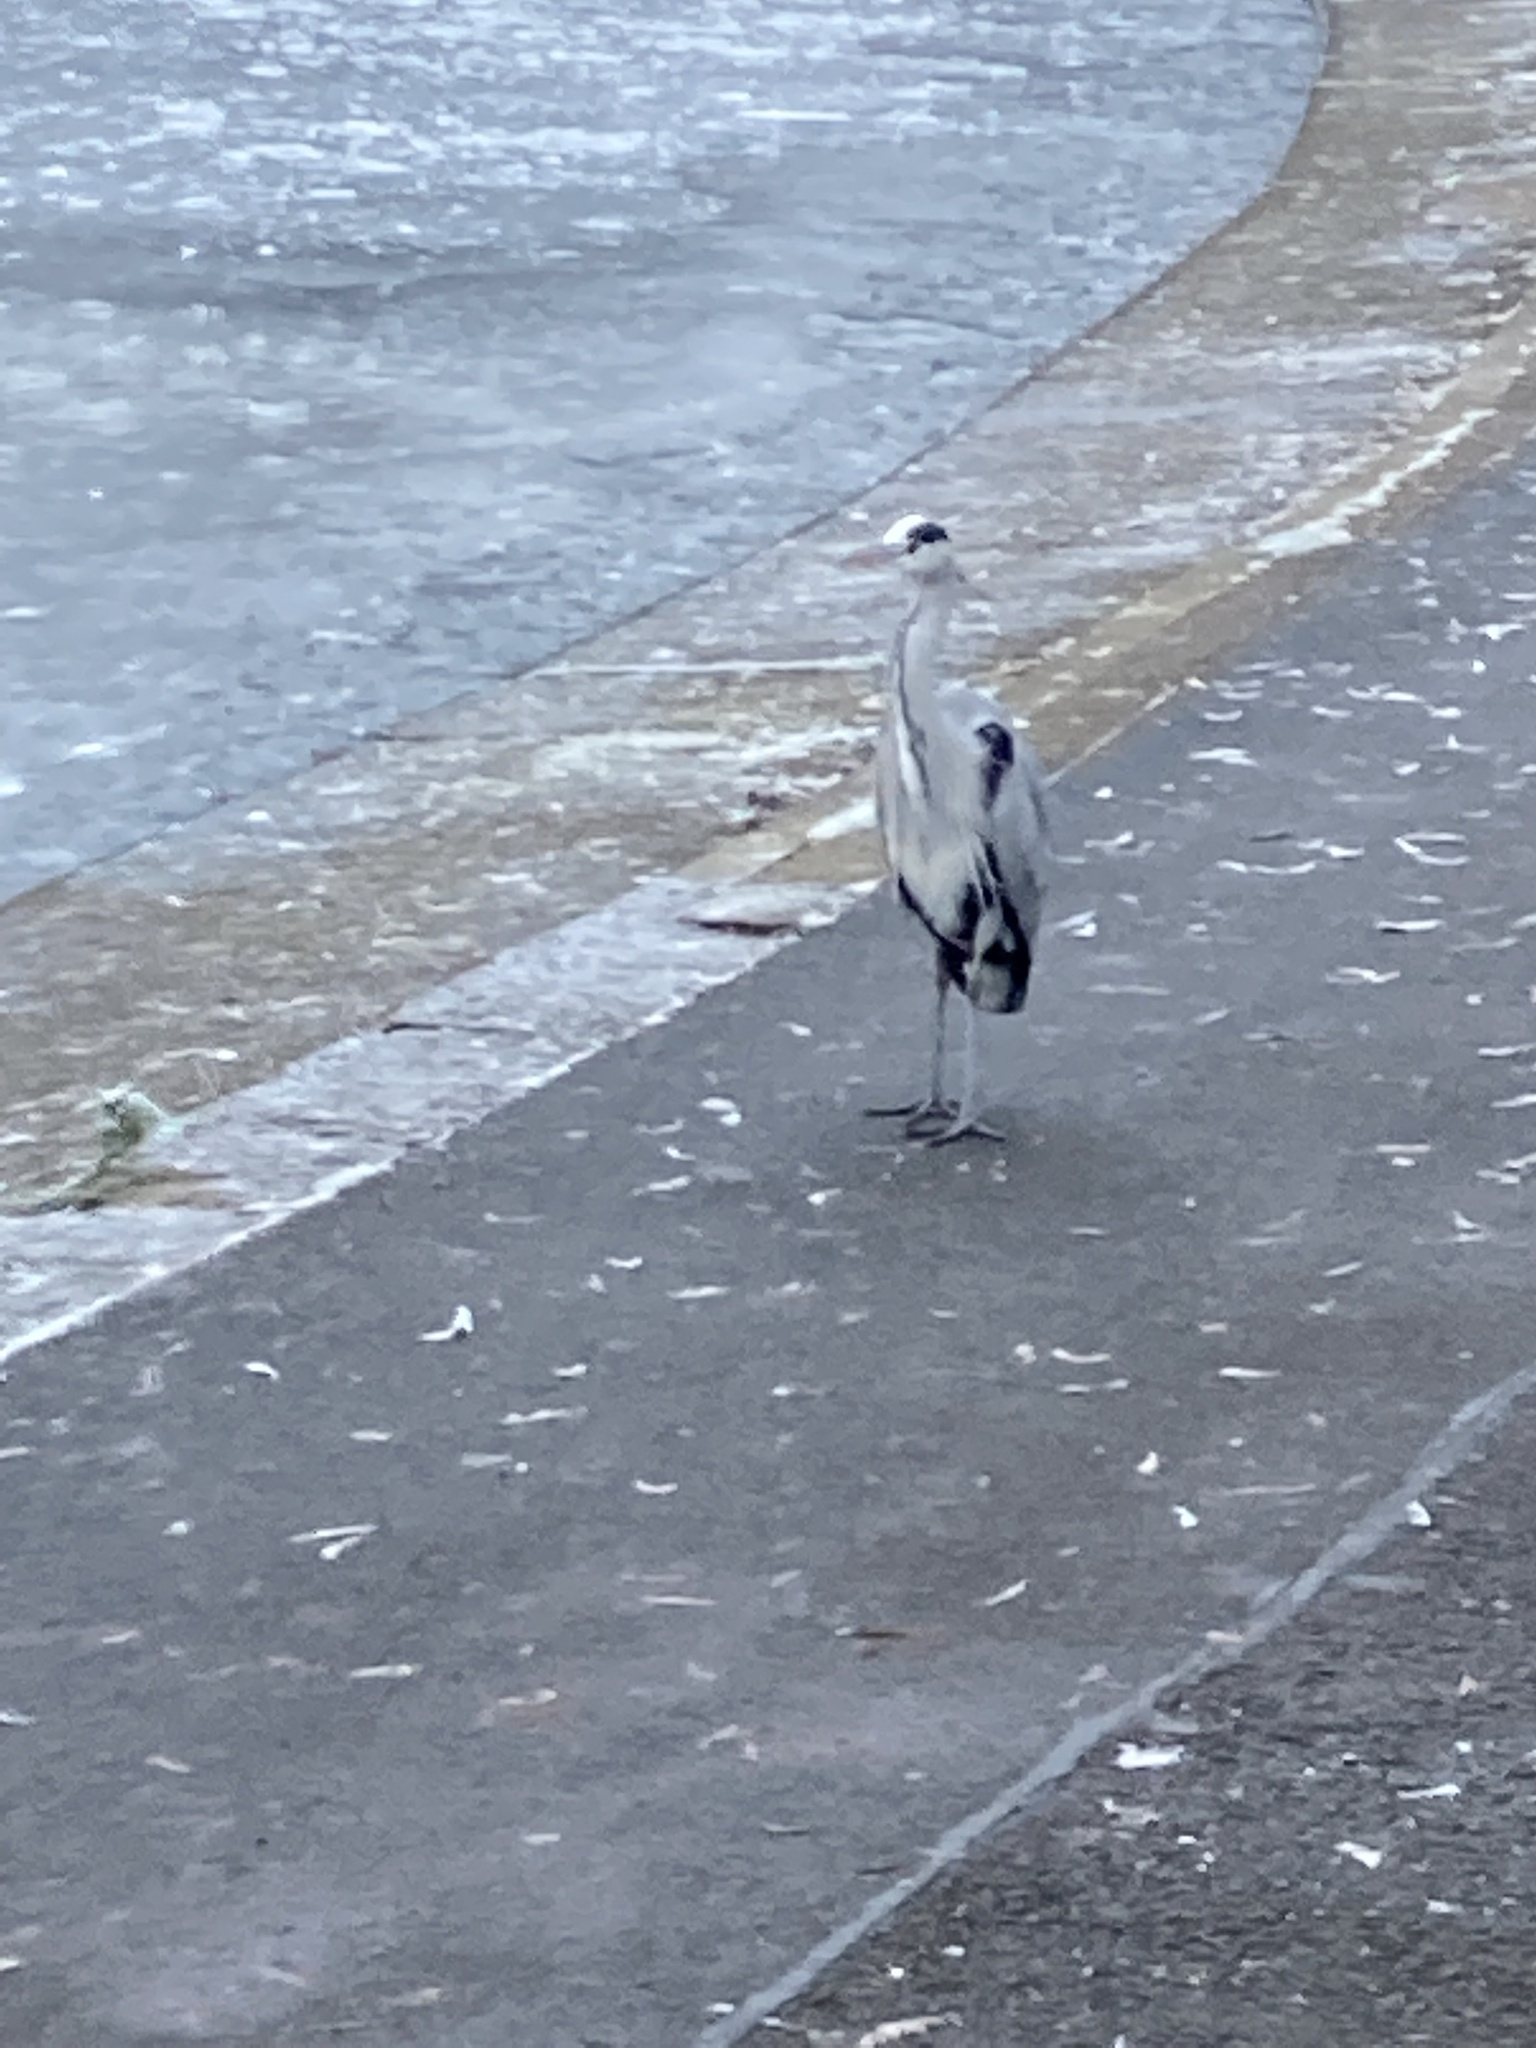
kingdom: Animalia
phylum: Chordata
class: Aves
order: Pelecaniformes
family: Ardeidae
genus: Ardea
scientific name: Ardea cinerea
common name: Grey heron
